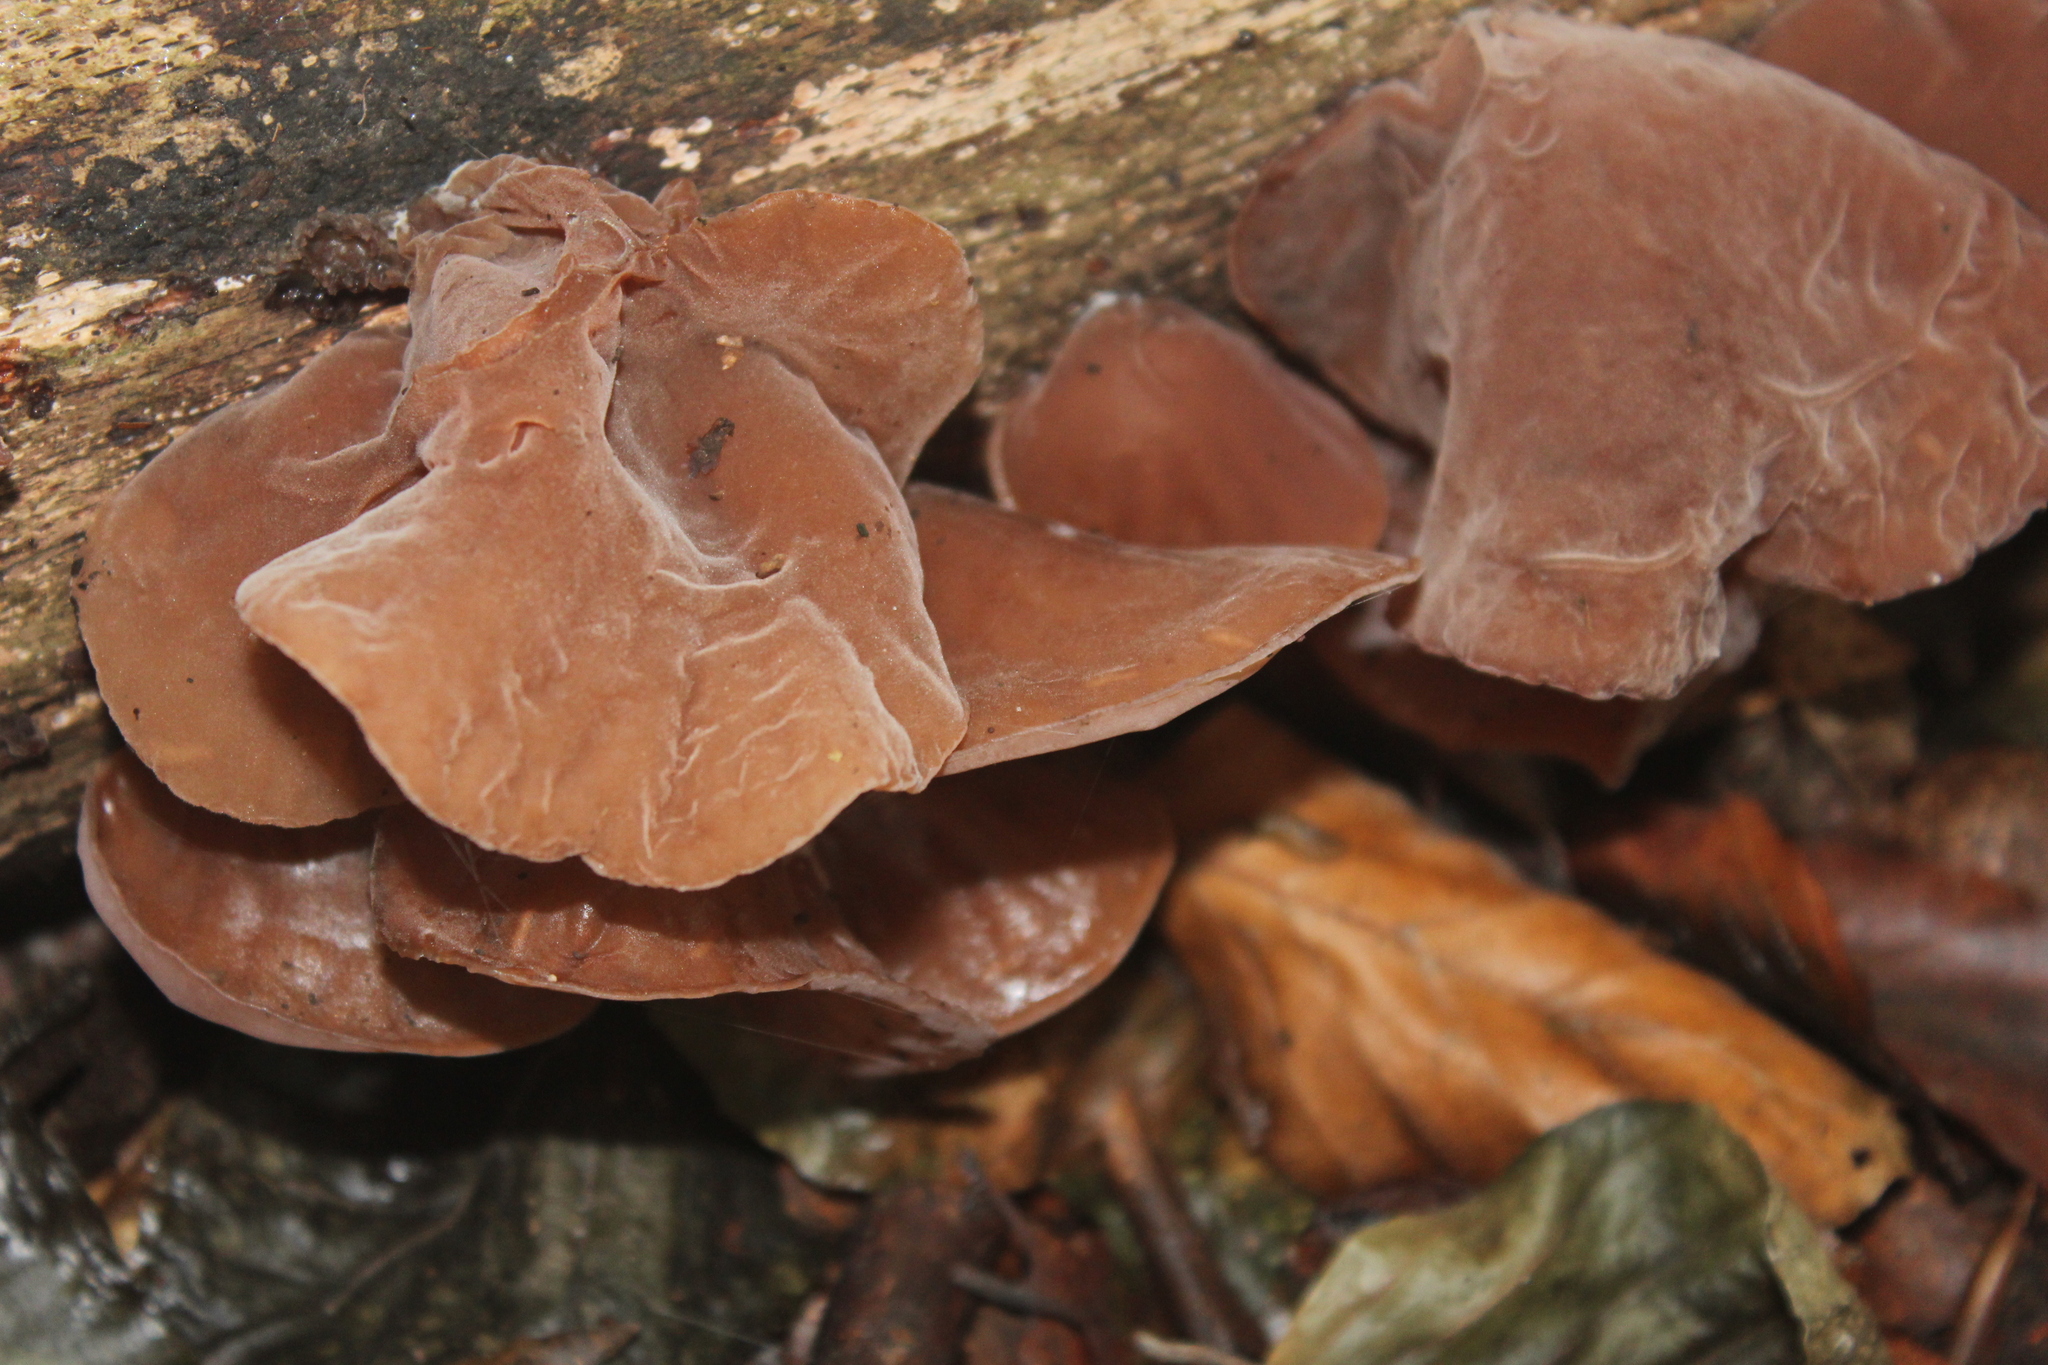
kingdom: Fungi
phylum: Basidiomycota
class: Agaricomycetes
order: Auriculariales
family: Auriculariaceae
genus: Auricularia
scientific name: Auricularia auricula-judae
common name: Jelly ear
